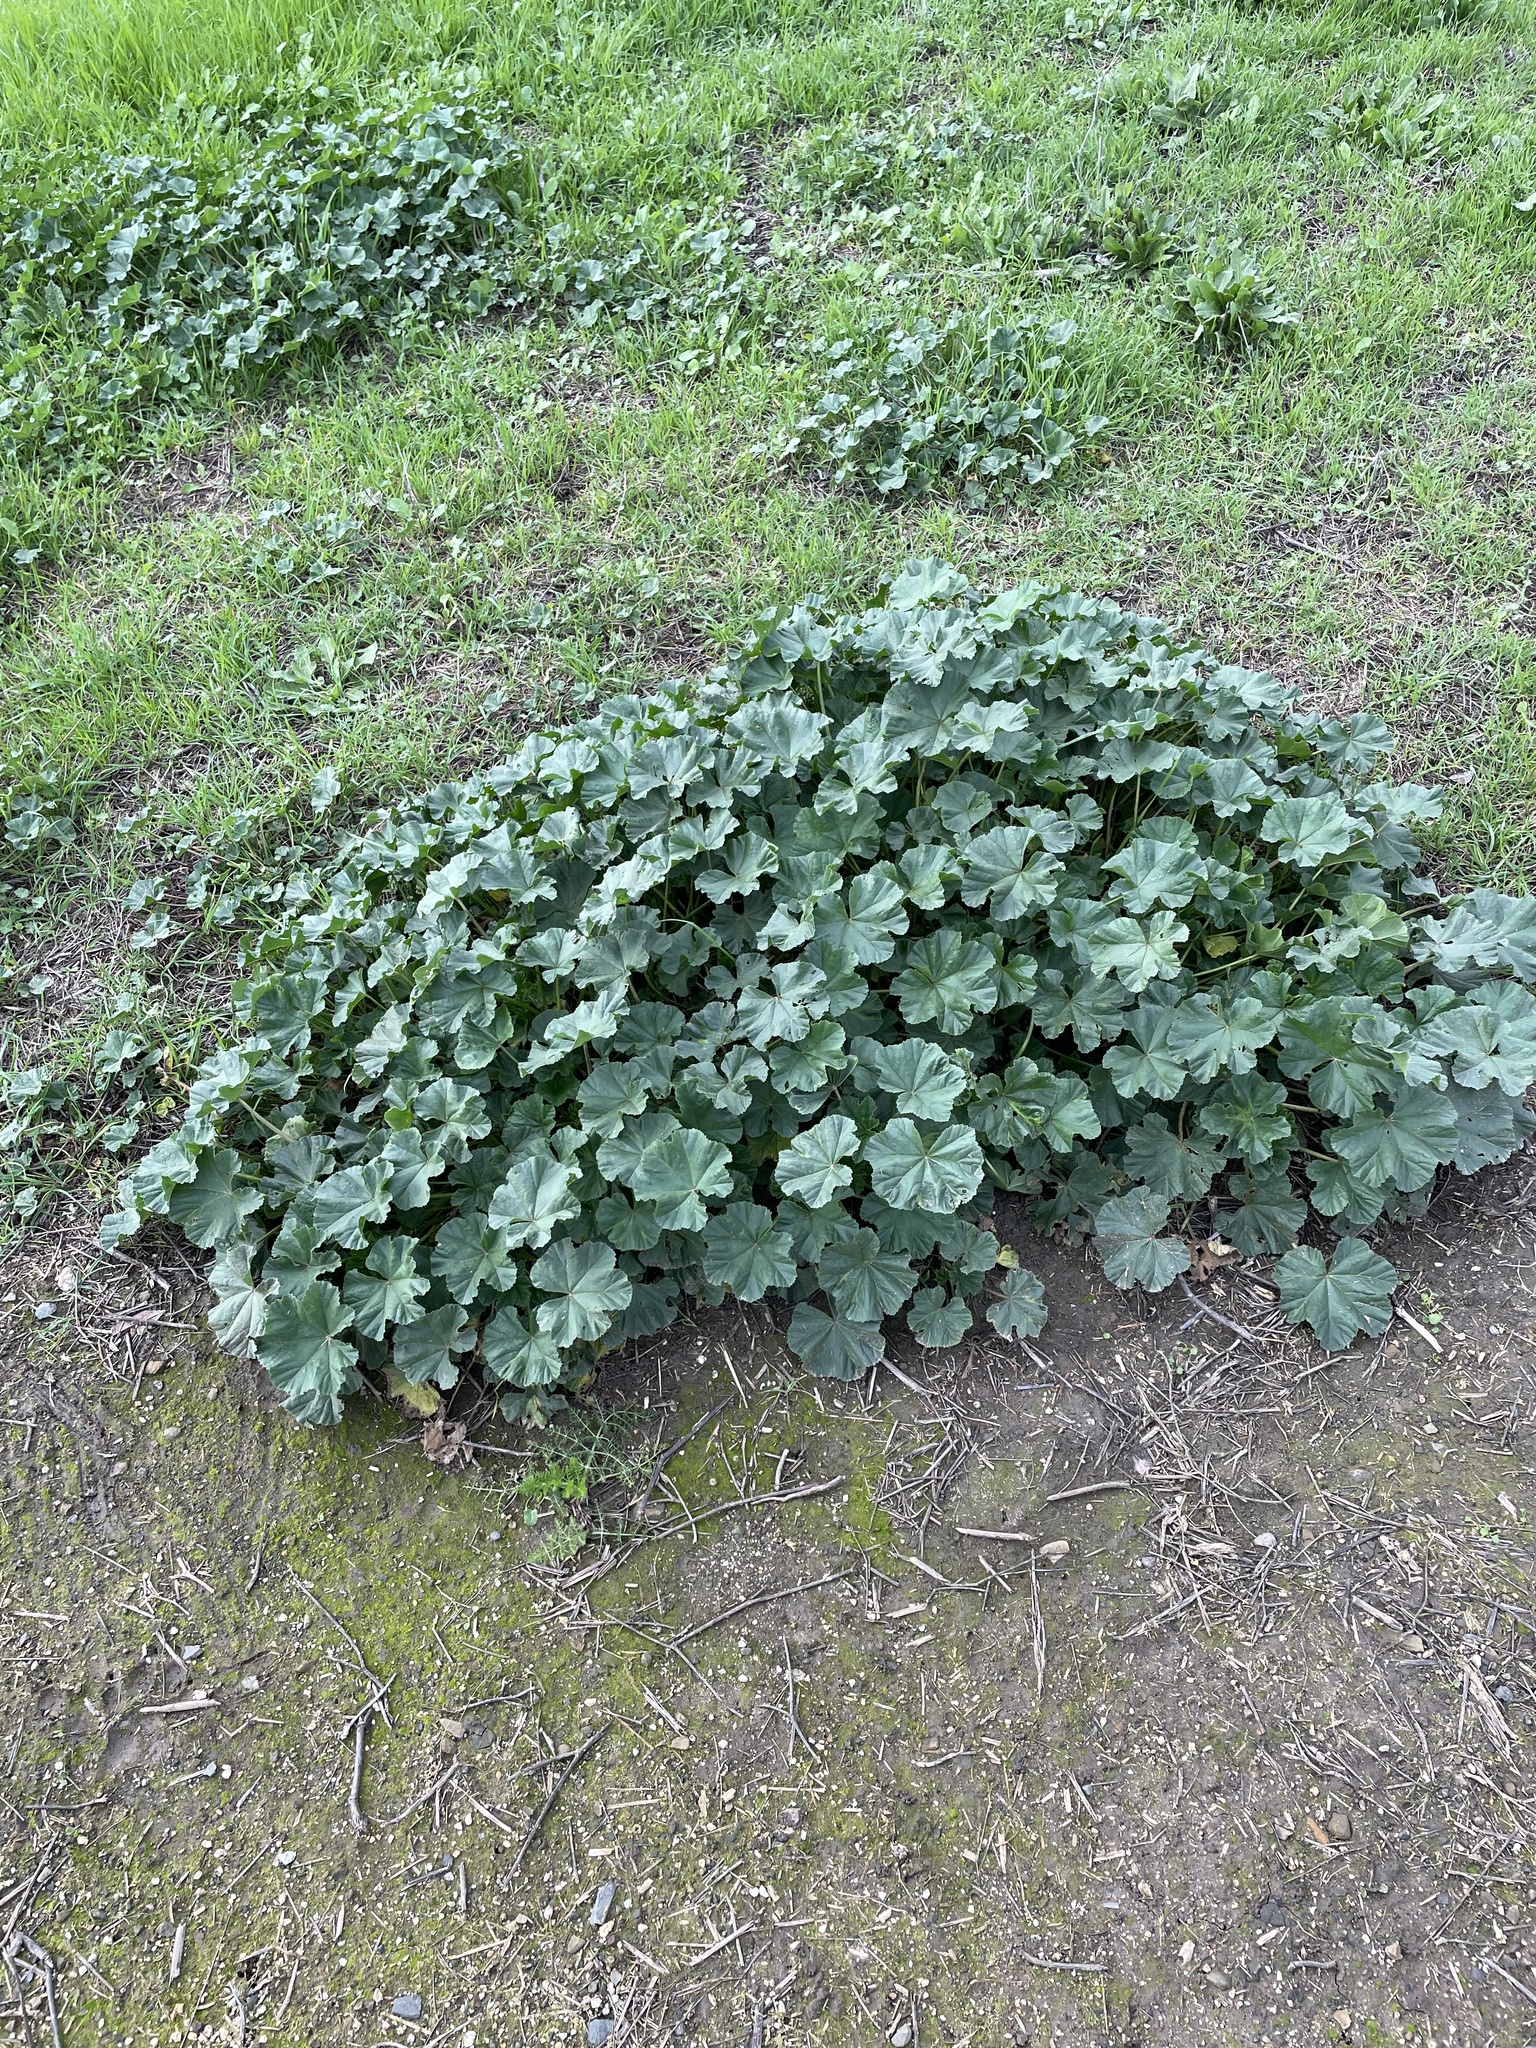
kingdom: Plantae
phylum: Tracheophyta
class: Magnoliopsida
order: Malvales
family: Malvaceae
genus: Malva
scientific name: Malva
